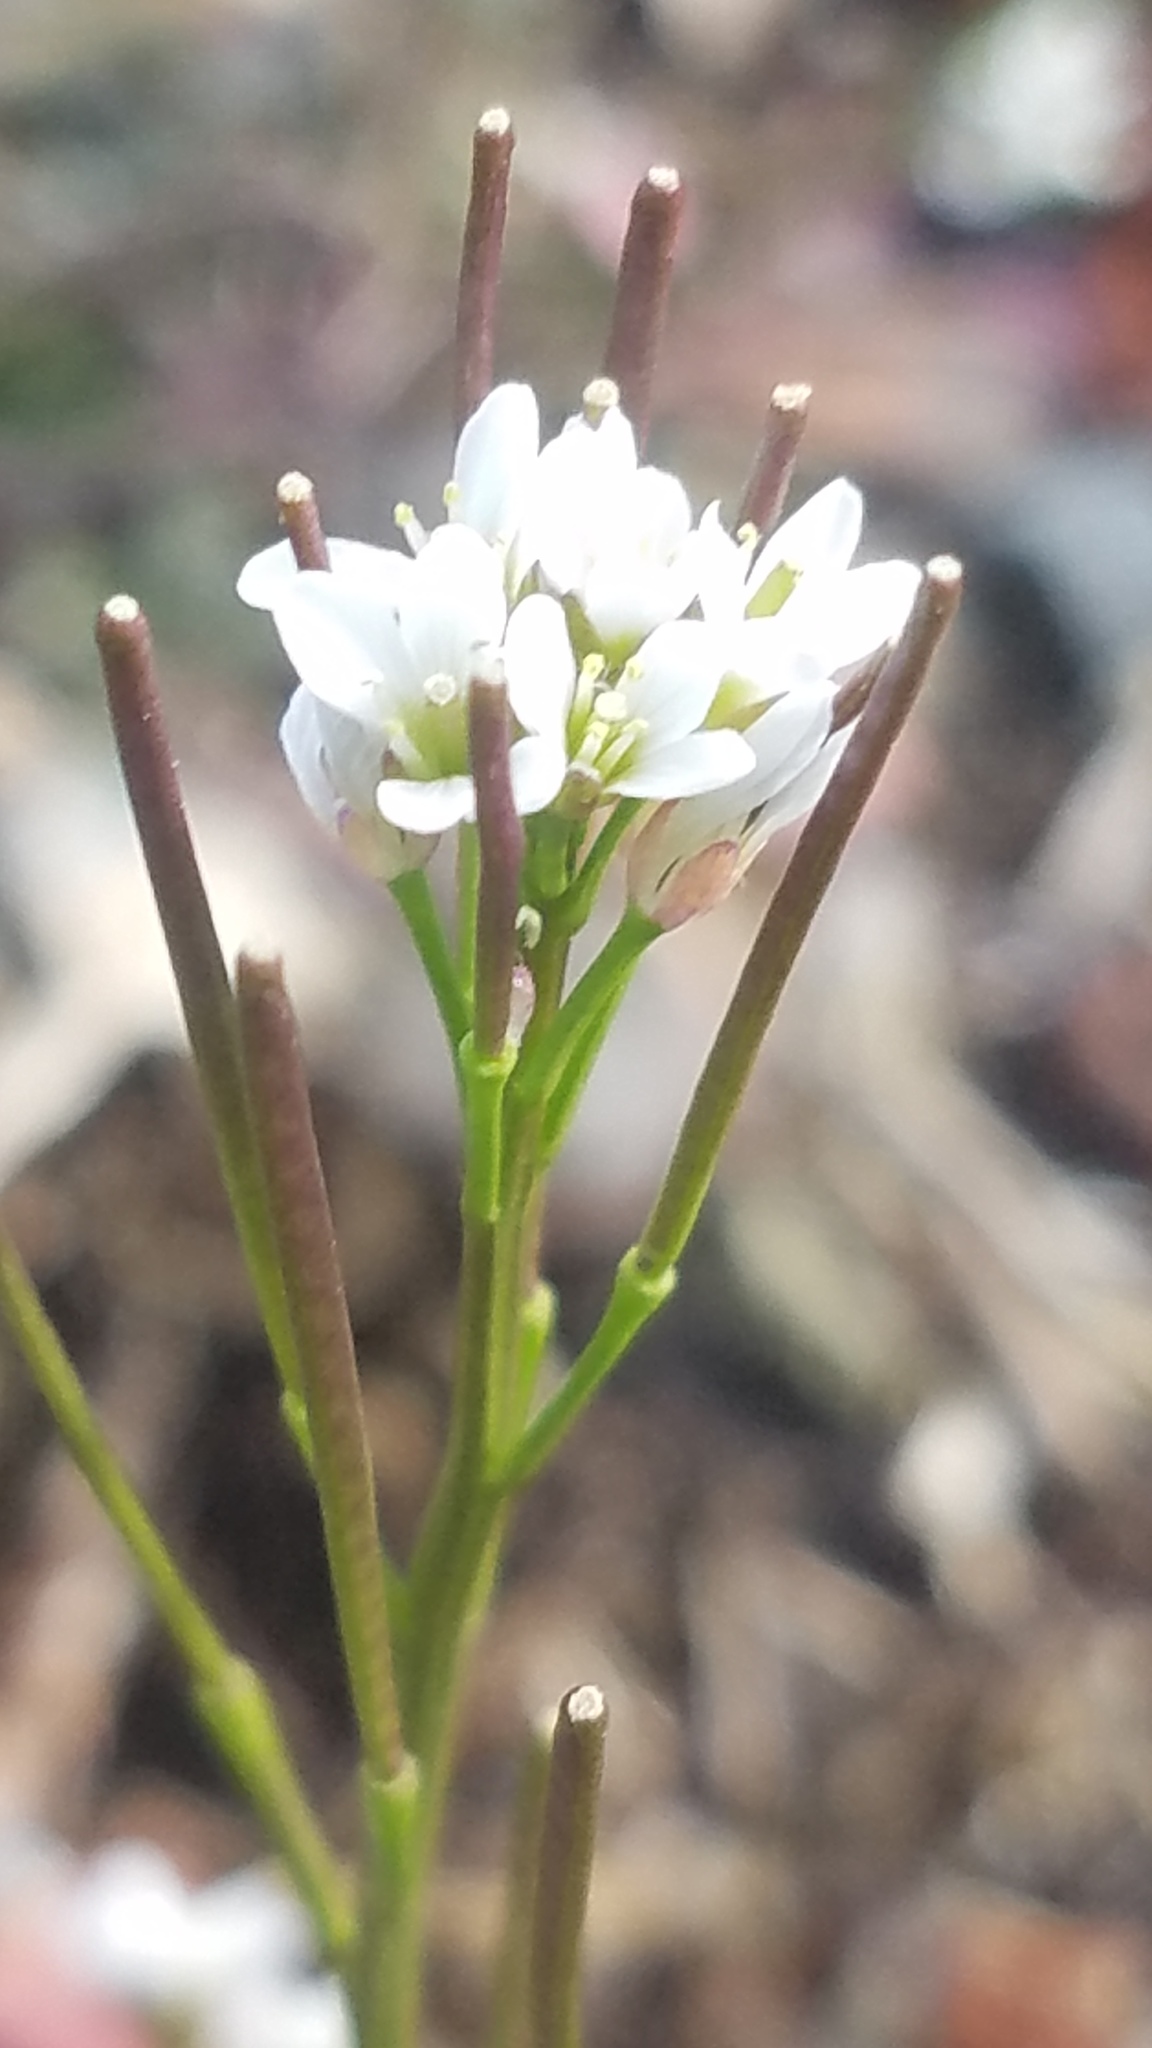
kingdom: Plantae
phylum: Tracheophyta
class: Magnoliopsida
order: Brassicales
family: Brassicaceae
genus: Cardamine
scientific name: Cardamine hirsuta
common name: Hairy bittercress
